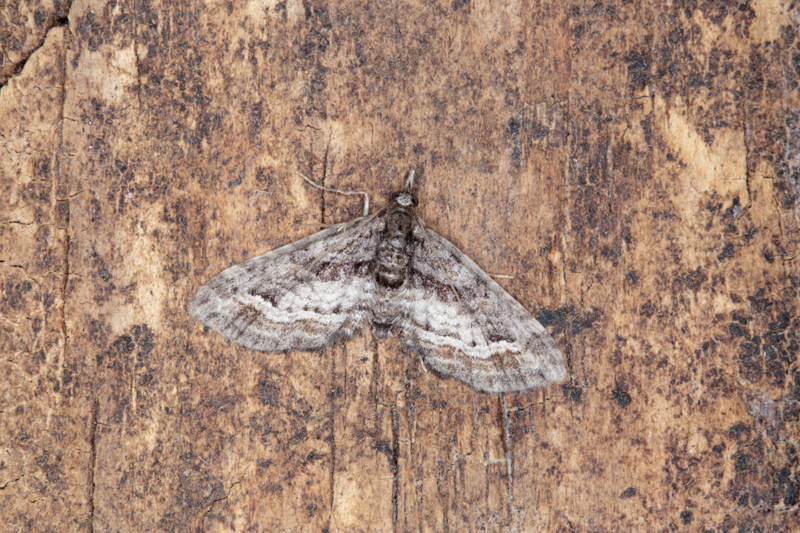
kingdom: Animalia
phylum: Arthropoda
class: Insecta
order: Lepidoptera
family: Geometridae
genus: Idaea
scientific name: Idaea mutanda
